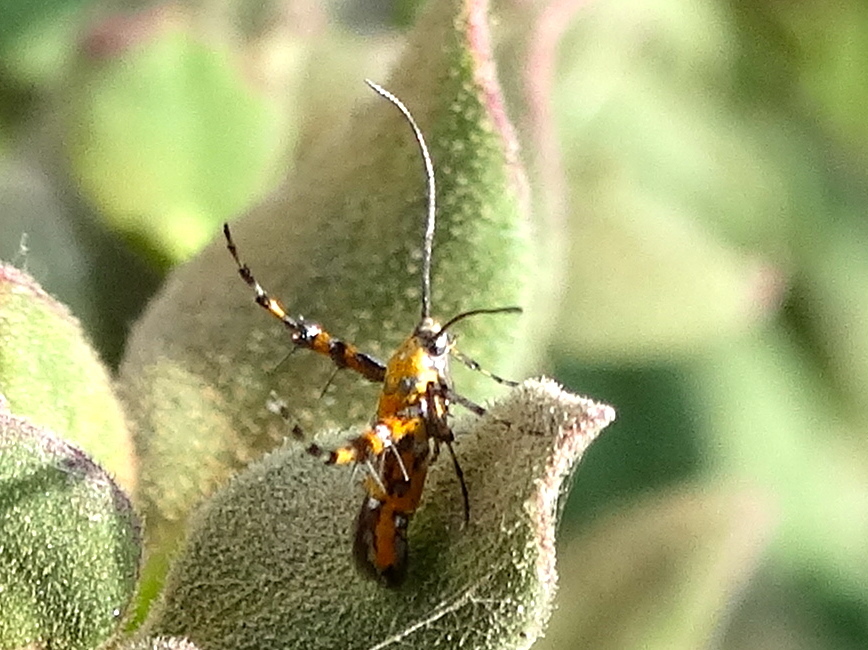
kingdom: Animalia
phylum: Arthropoda
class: Insecta
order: Lepidoptera
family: Heliodinidae
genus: Heliodines
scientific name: Heliodines
